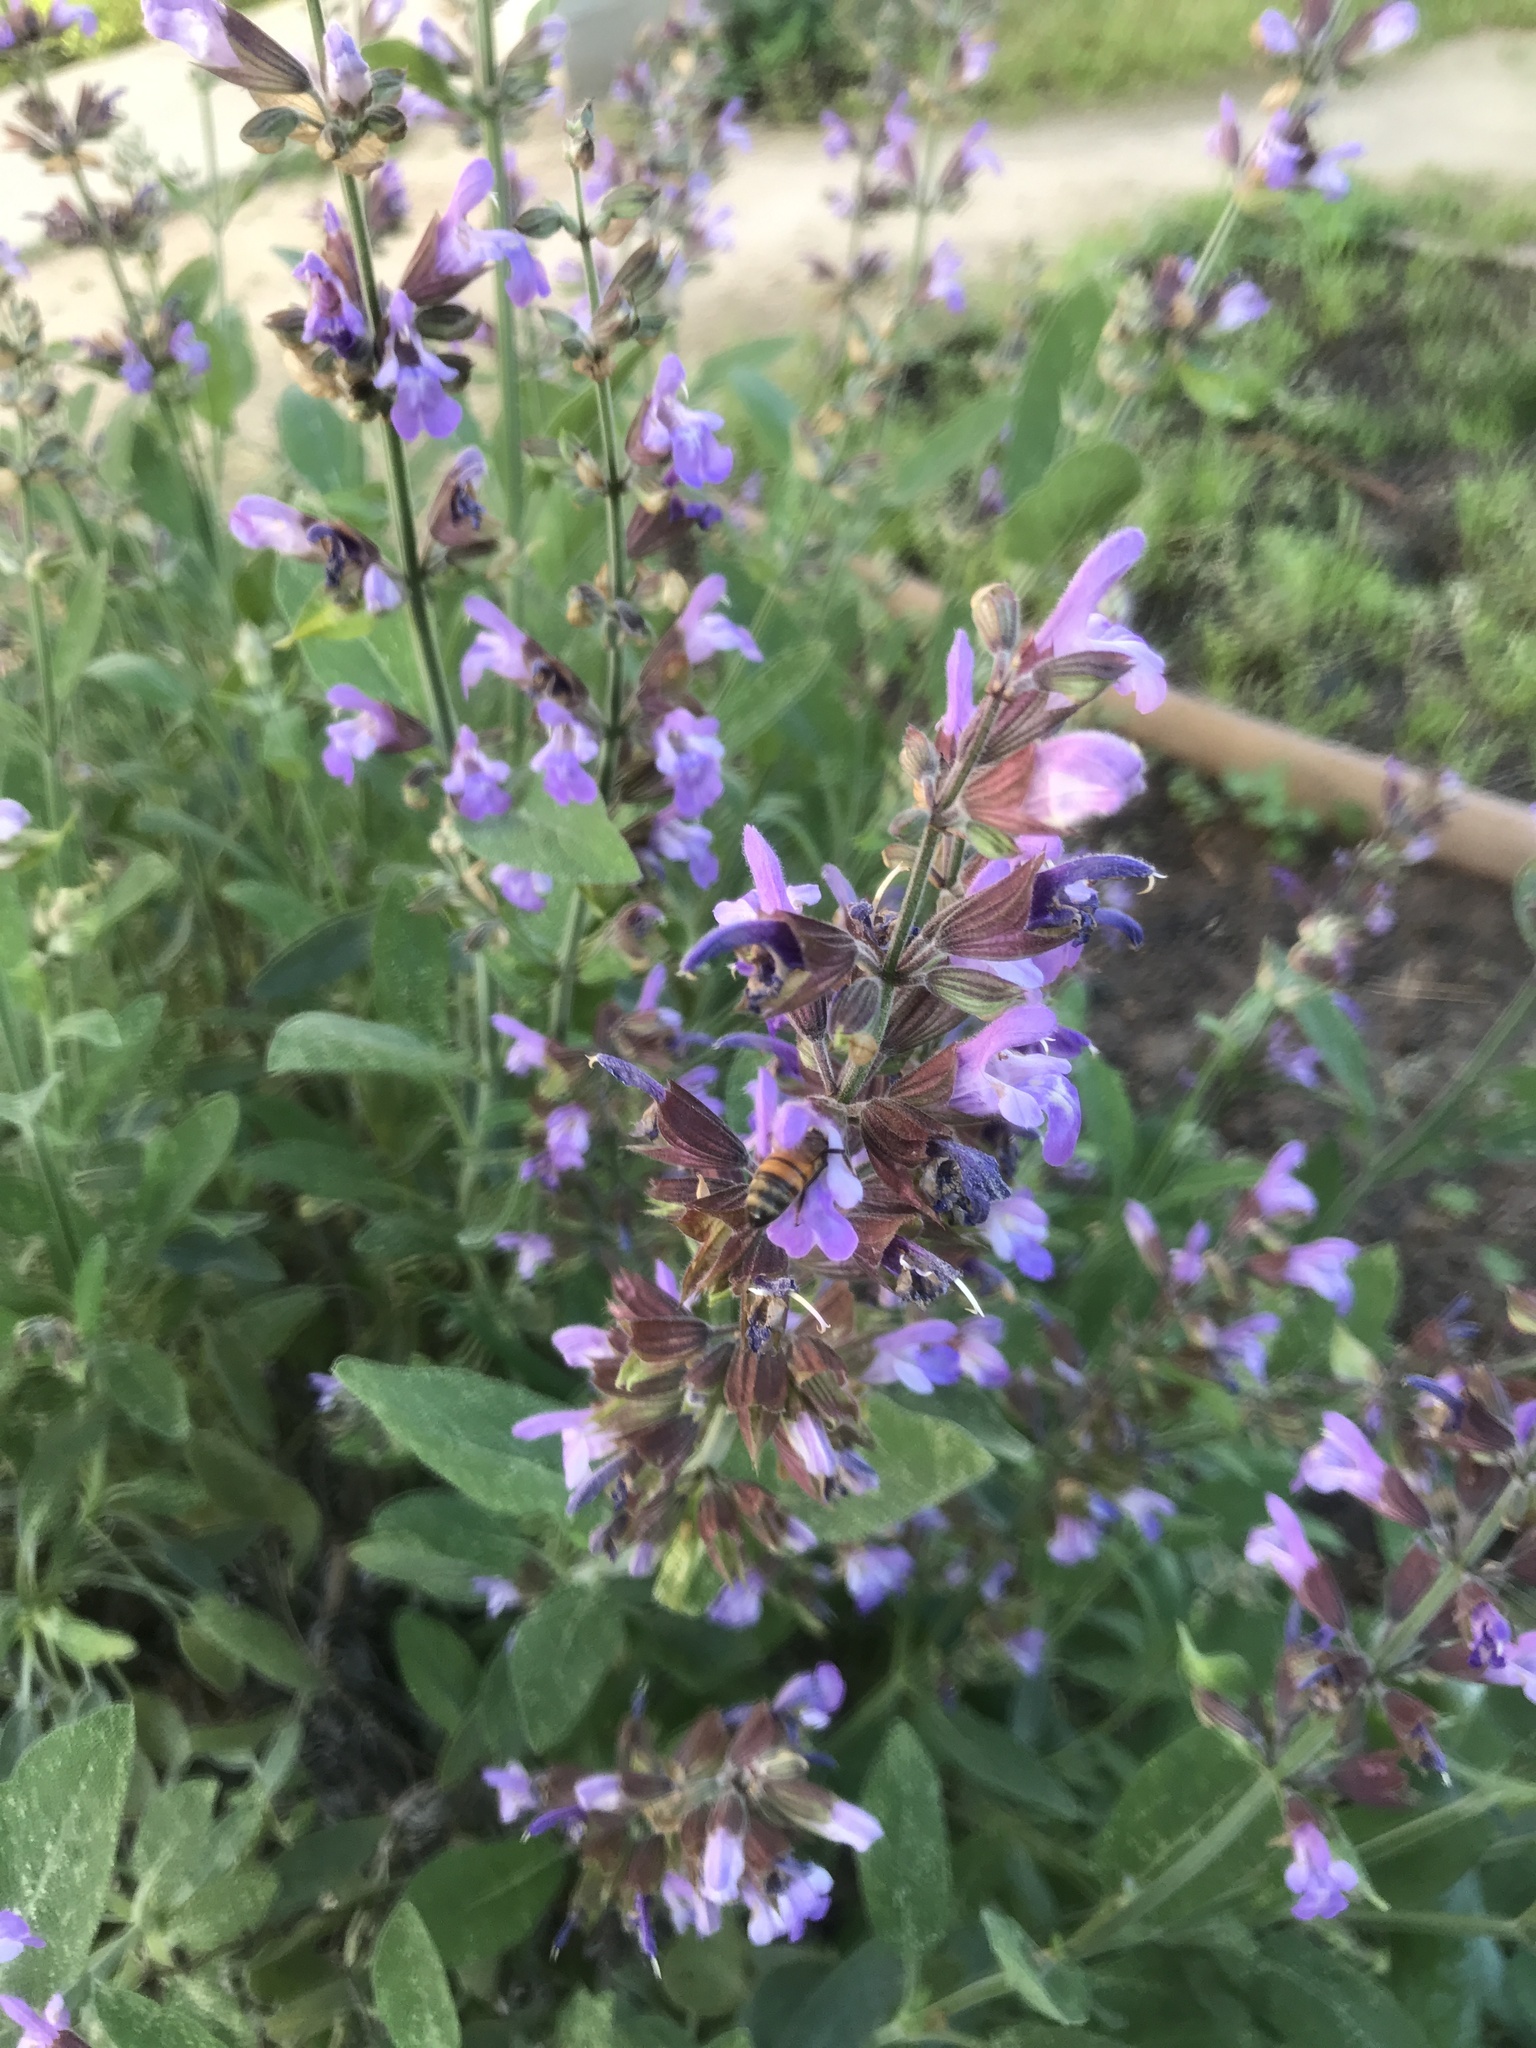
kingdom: Animalia
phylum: Arthropoda
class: Insecta
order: Hymenoptera
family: Apidae
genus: Apis
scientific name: Apis mellifera
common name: Honey bee
